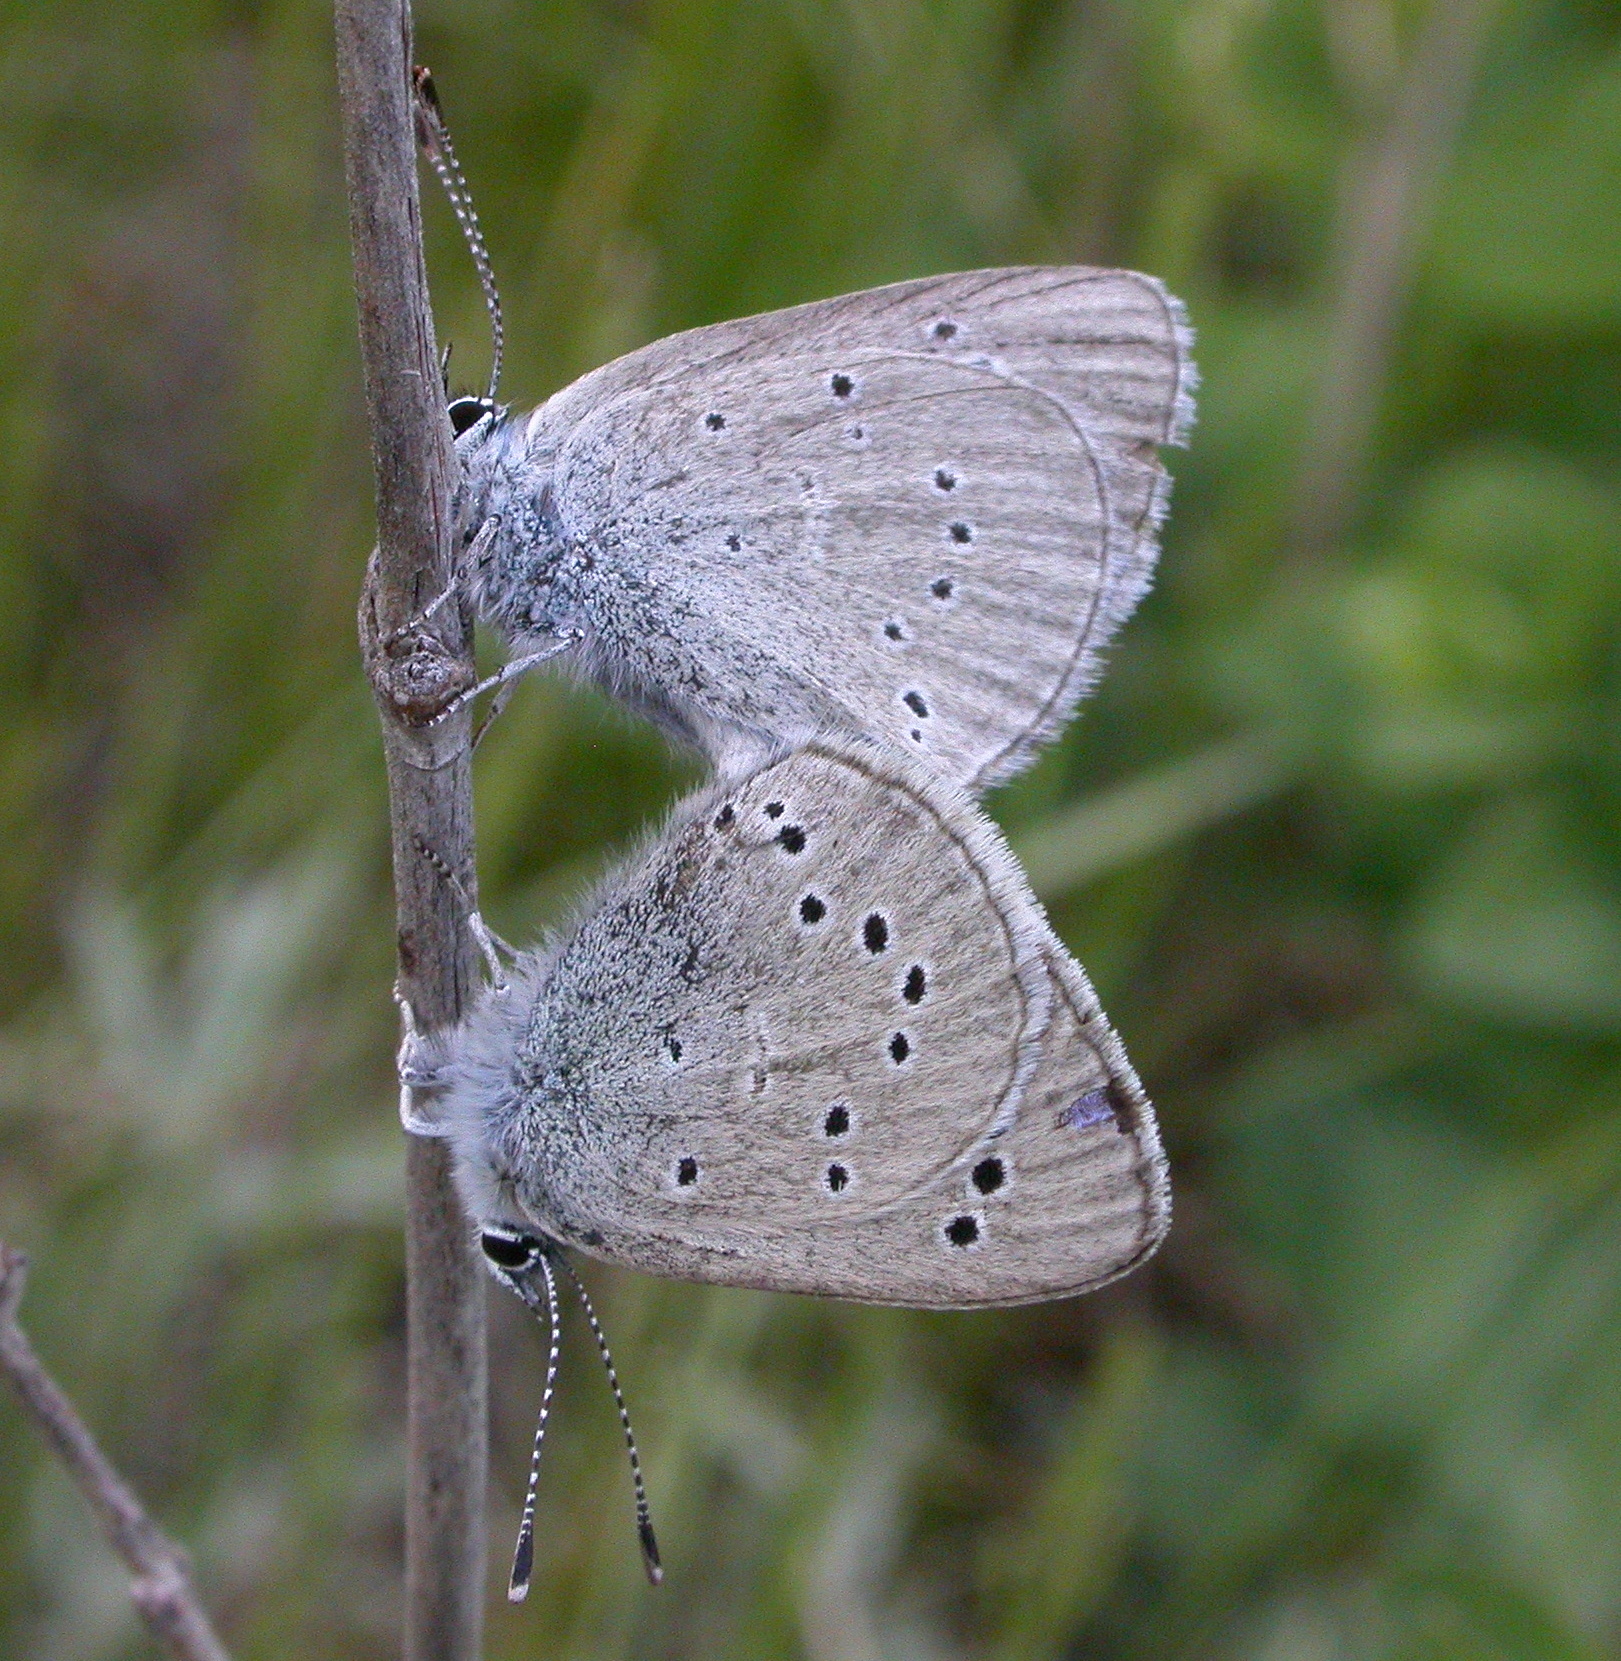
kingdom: Animalia
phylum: Arthropoda
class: Insecta
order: Lepidoptera
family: Lycaenidae
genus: Glaucopsyche
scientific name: Glaucopsyche lygdamus
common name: Silvery blue
